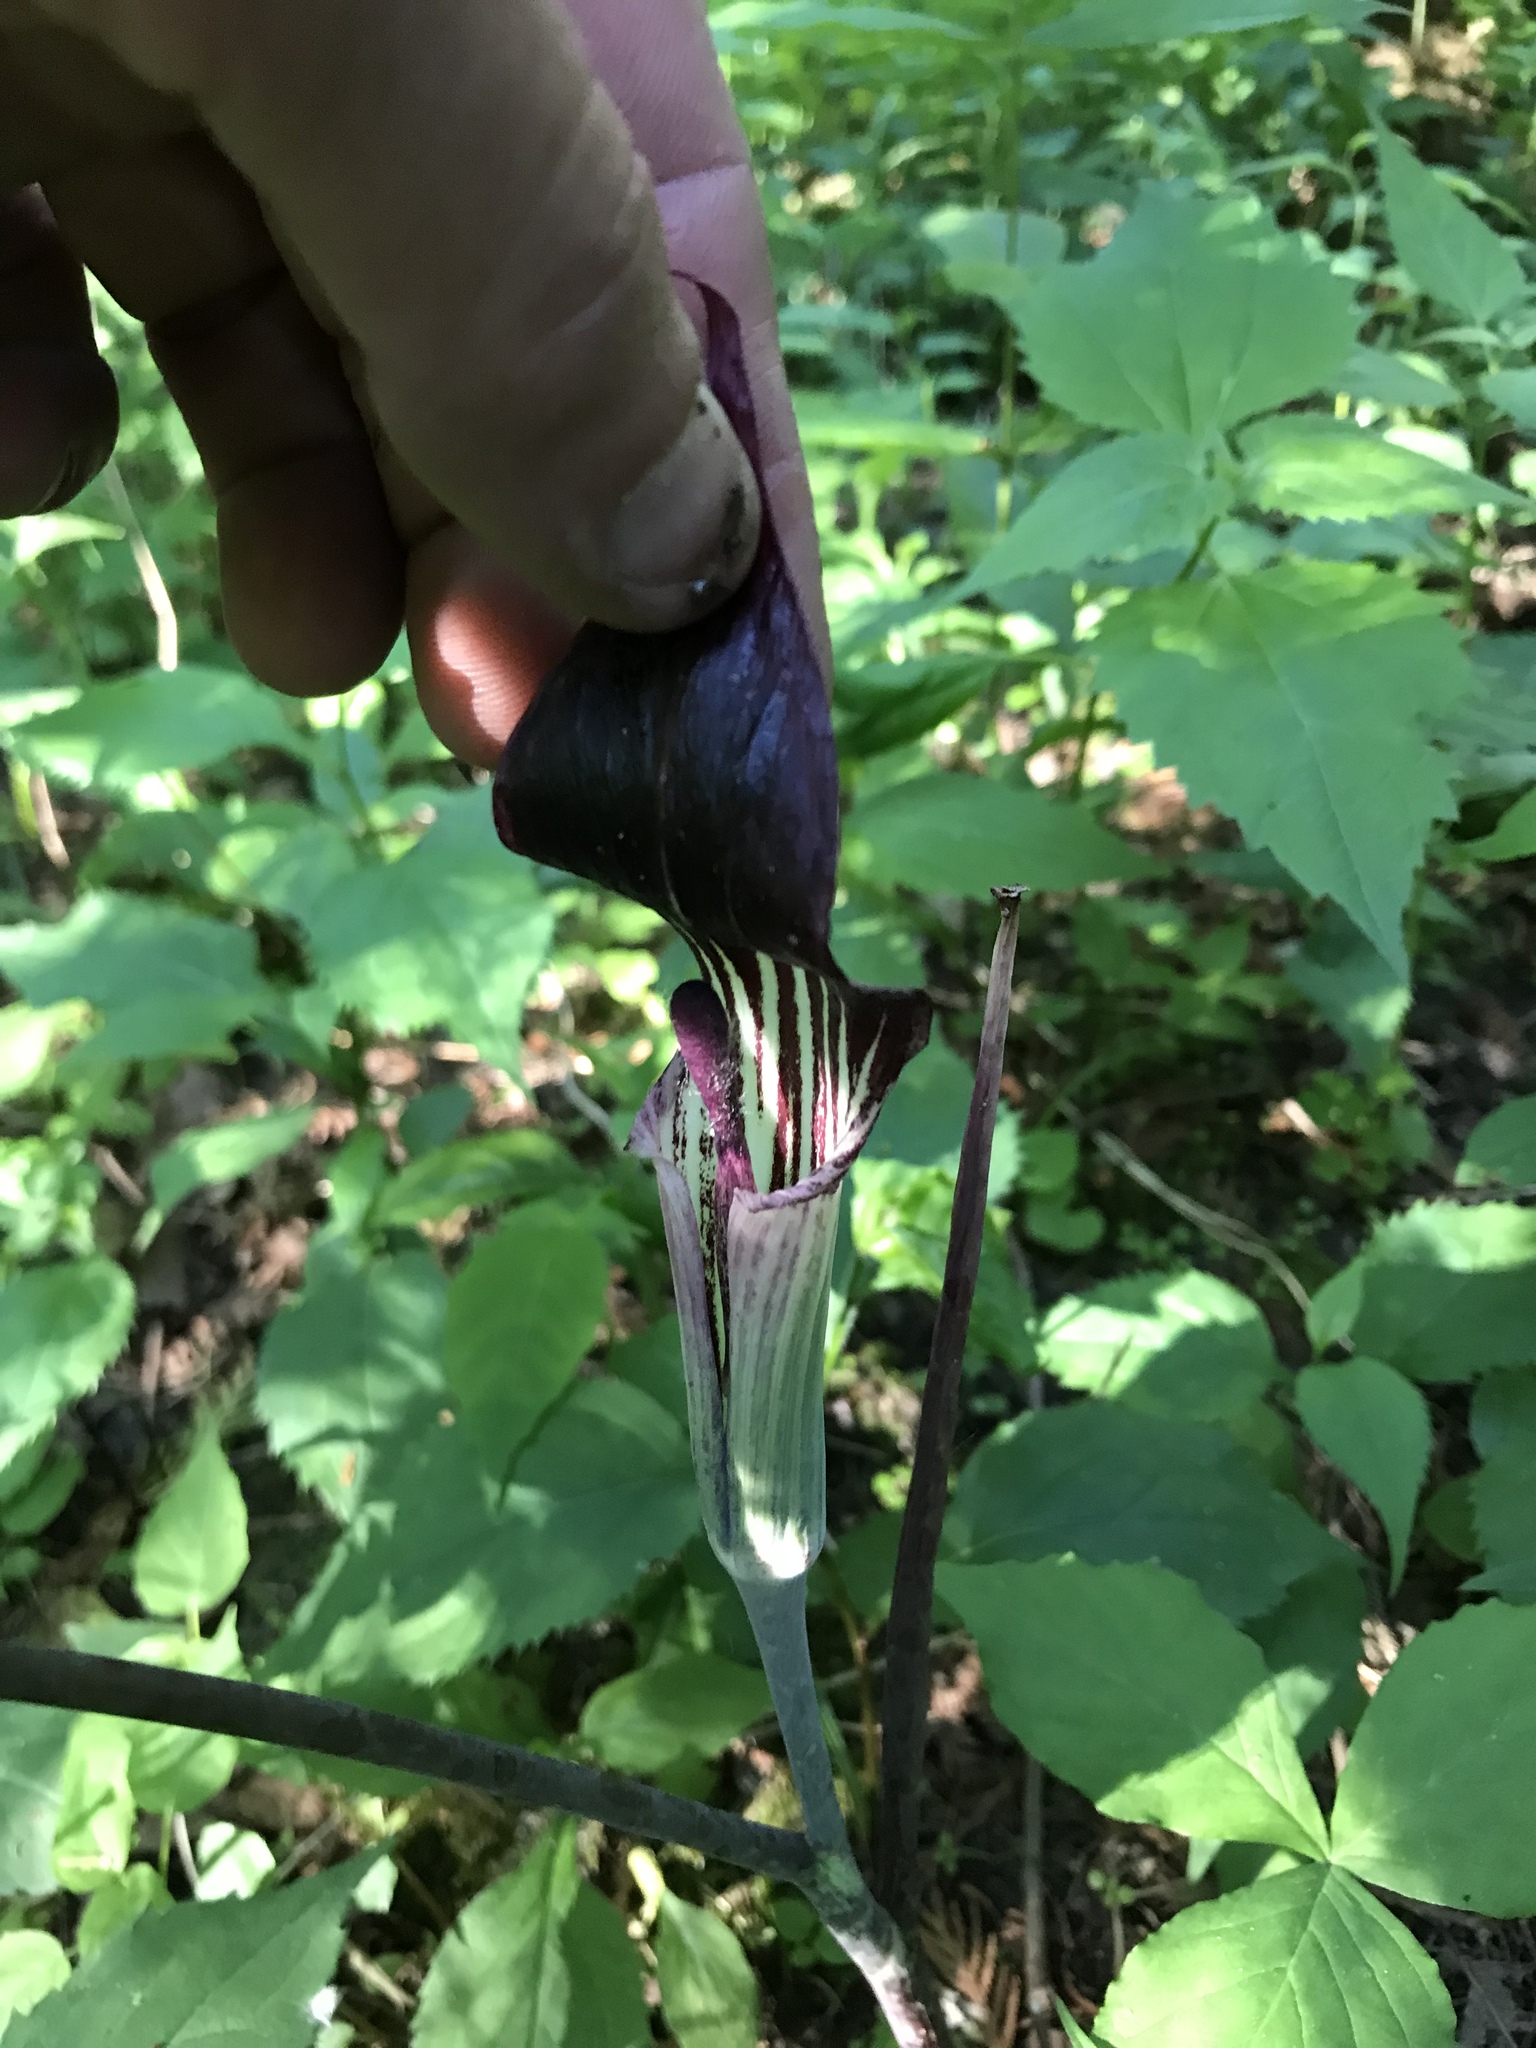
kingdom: Plantae
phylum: Tracheophyta
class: Liliopsida
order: Alismatales
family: Araceae
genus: Arisaema
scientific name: Arisaema triphyllum
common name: Jack-in-the-pulpit
